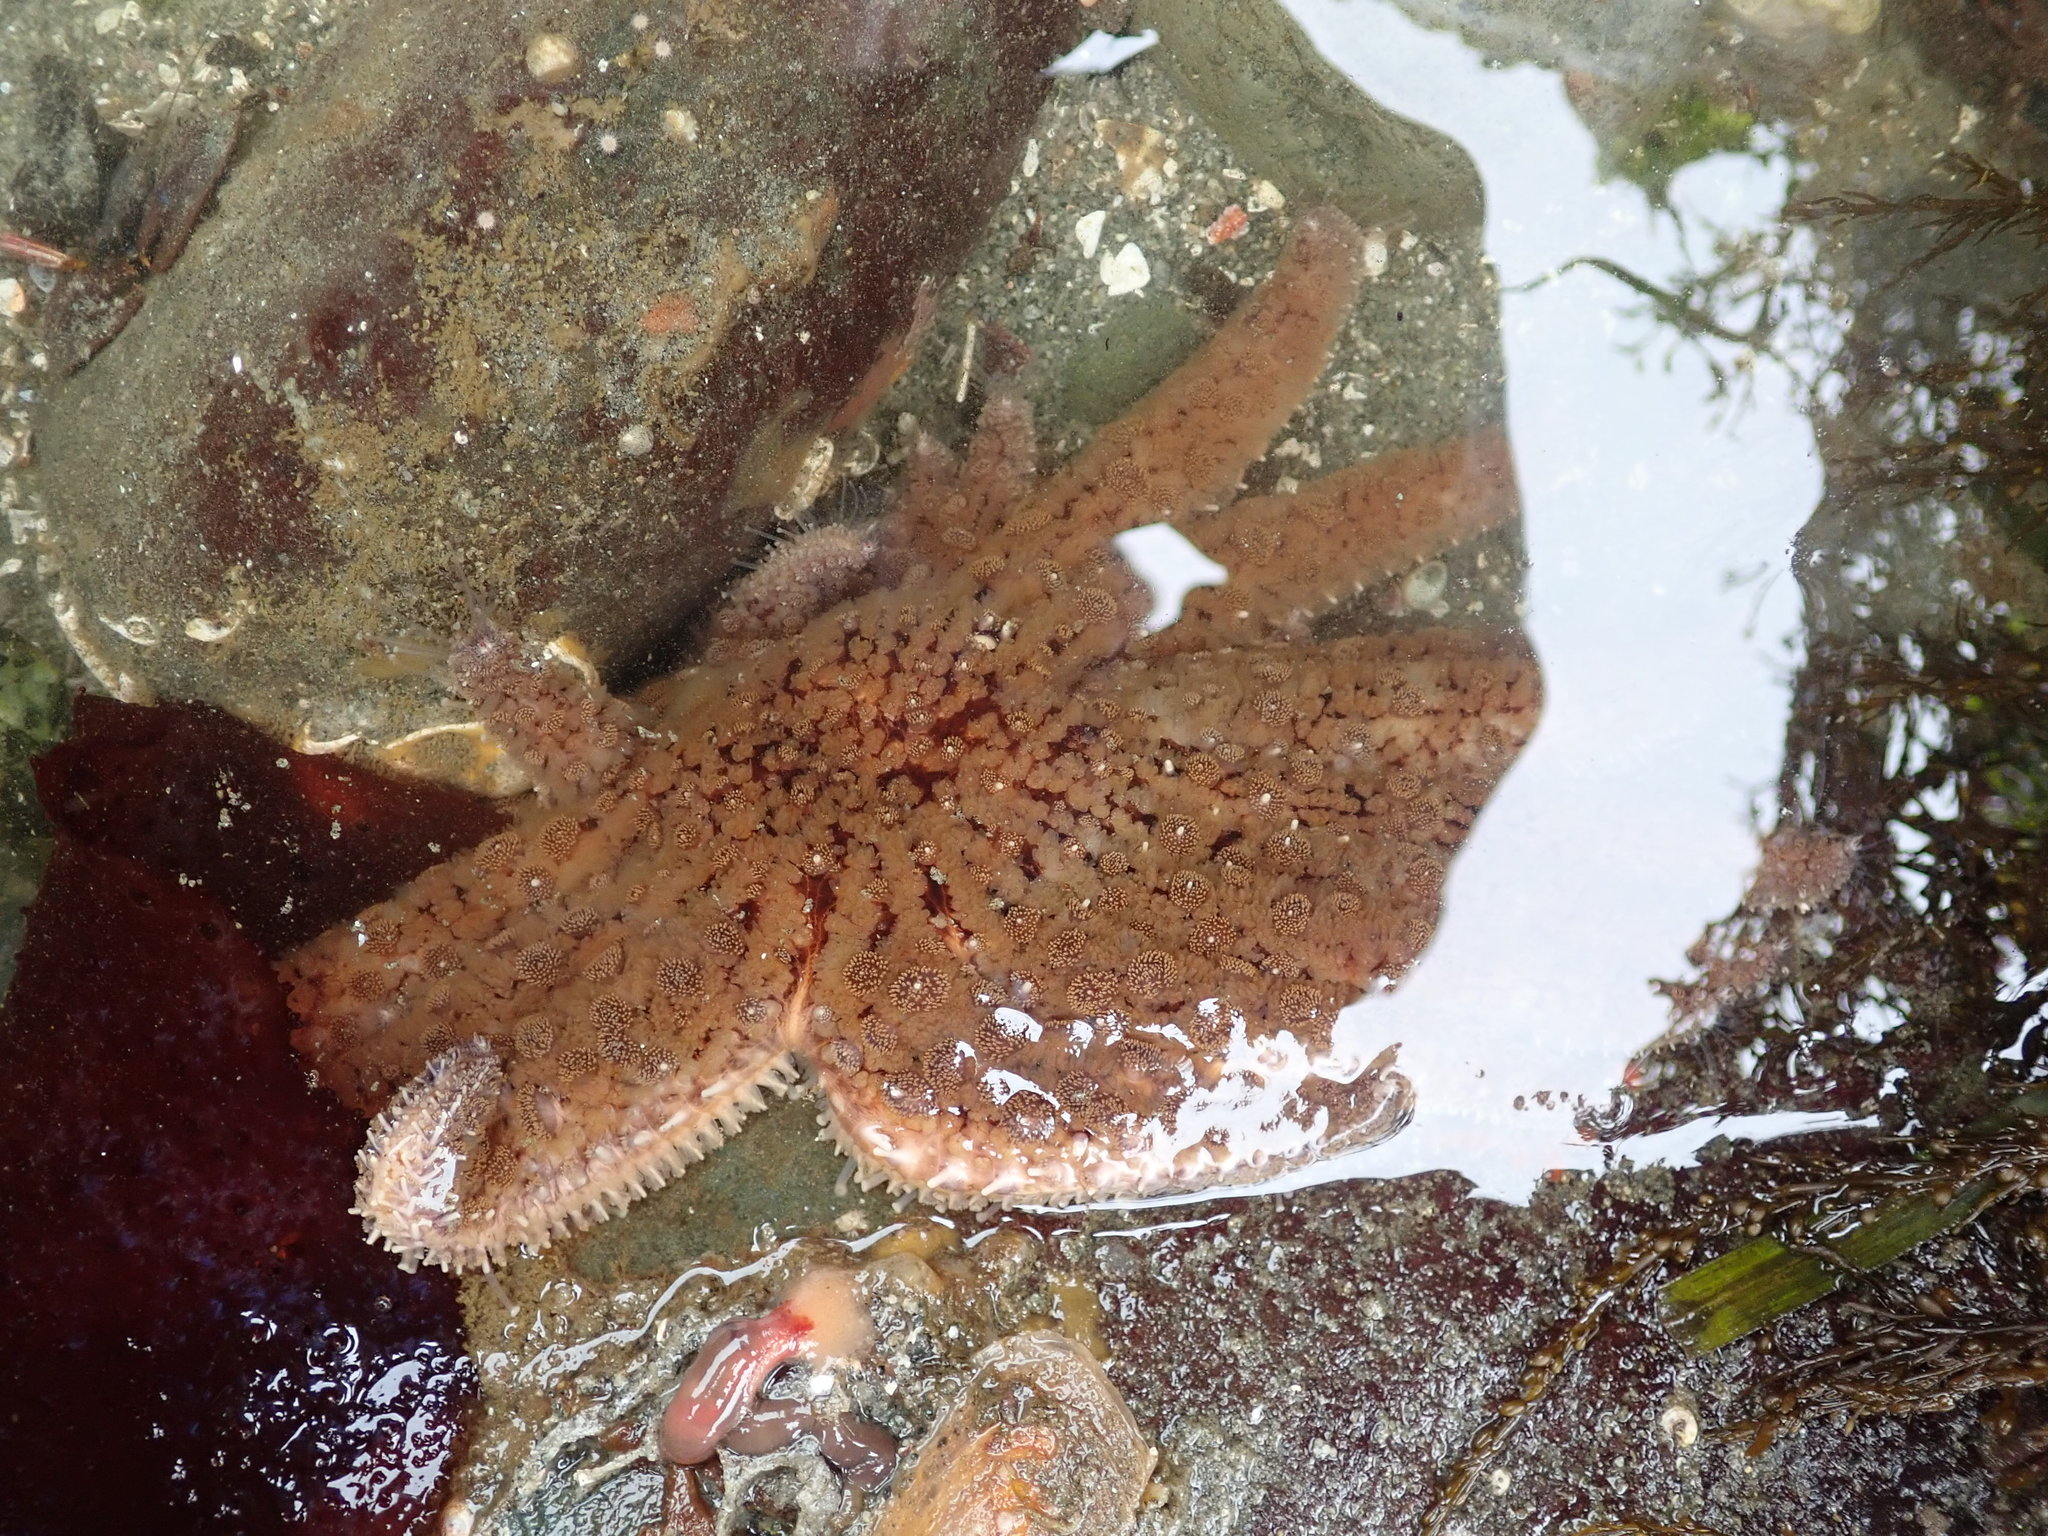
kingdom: Animalia
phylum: Echinodermata
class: Asteroidea
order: Forcipulatida
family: Asteriidae
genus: Pycnopodia
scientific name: Pycnopodia helianthoides
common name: Rag mop
